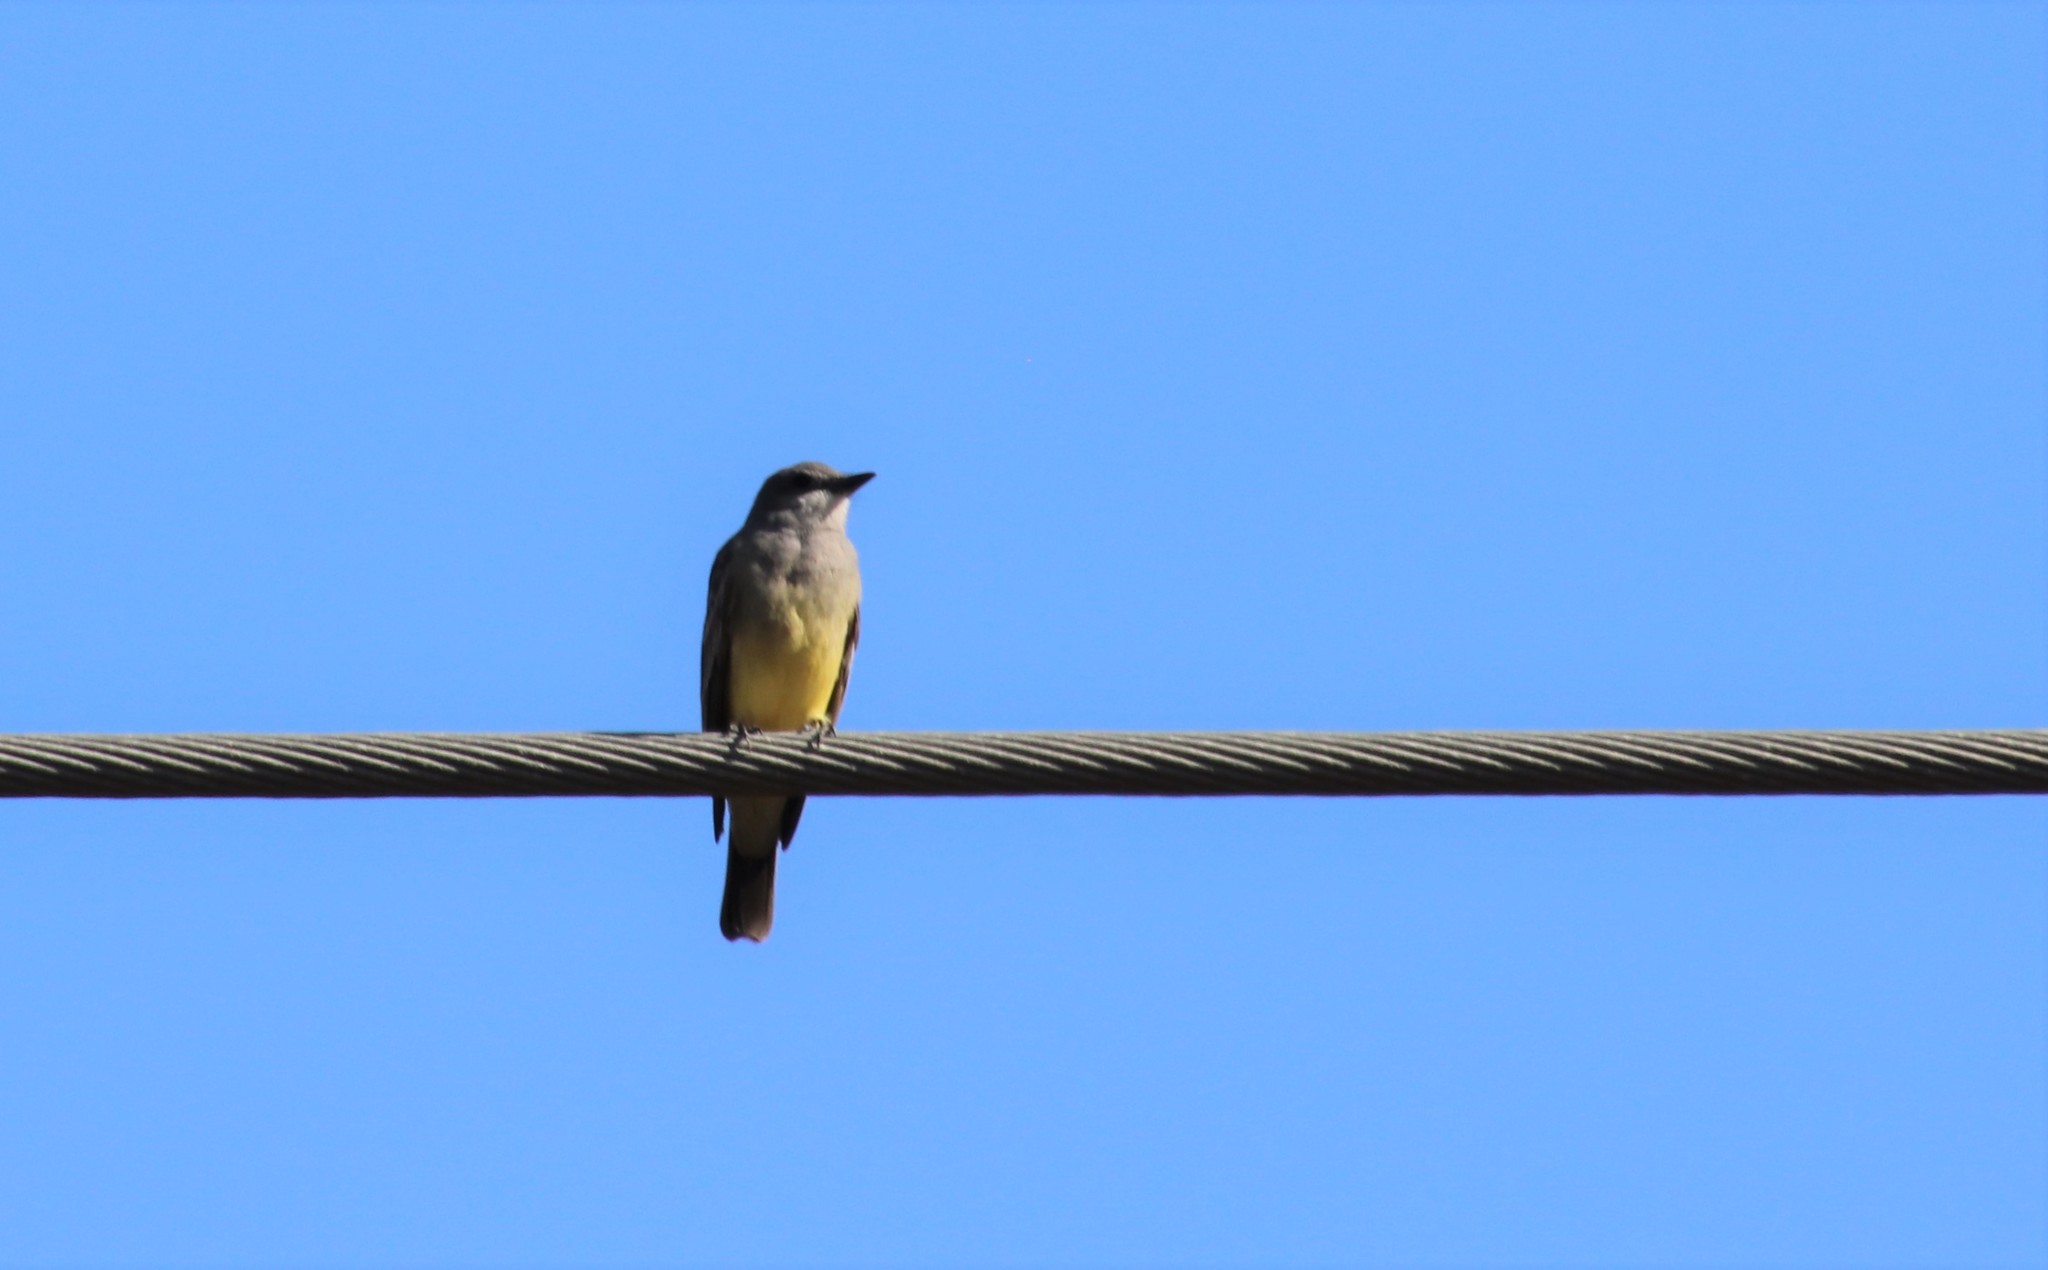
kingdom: Animalia
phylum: Chordata
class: Aves
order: Passeriformes
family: Tyrannidae
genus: Tyrannus
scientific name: Tyrannus vociferans
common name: Cassin's kingbird
